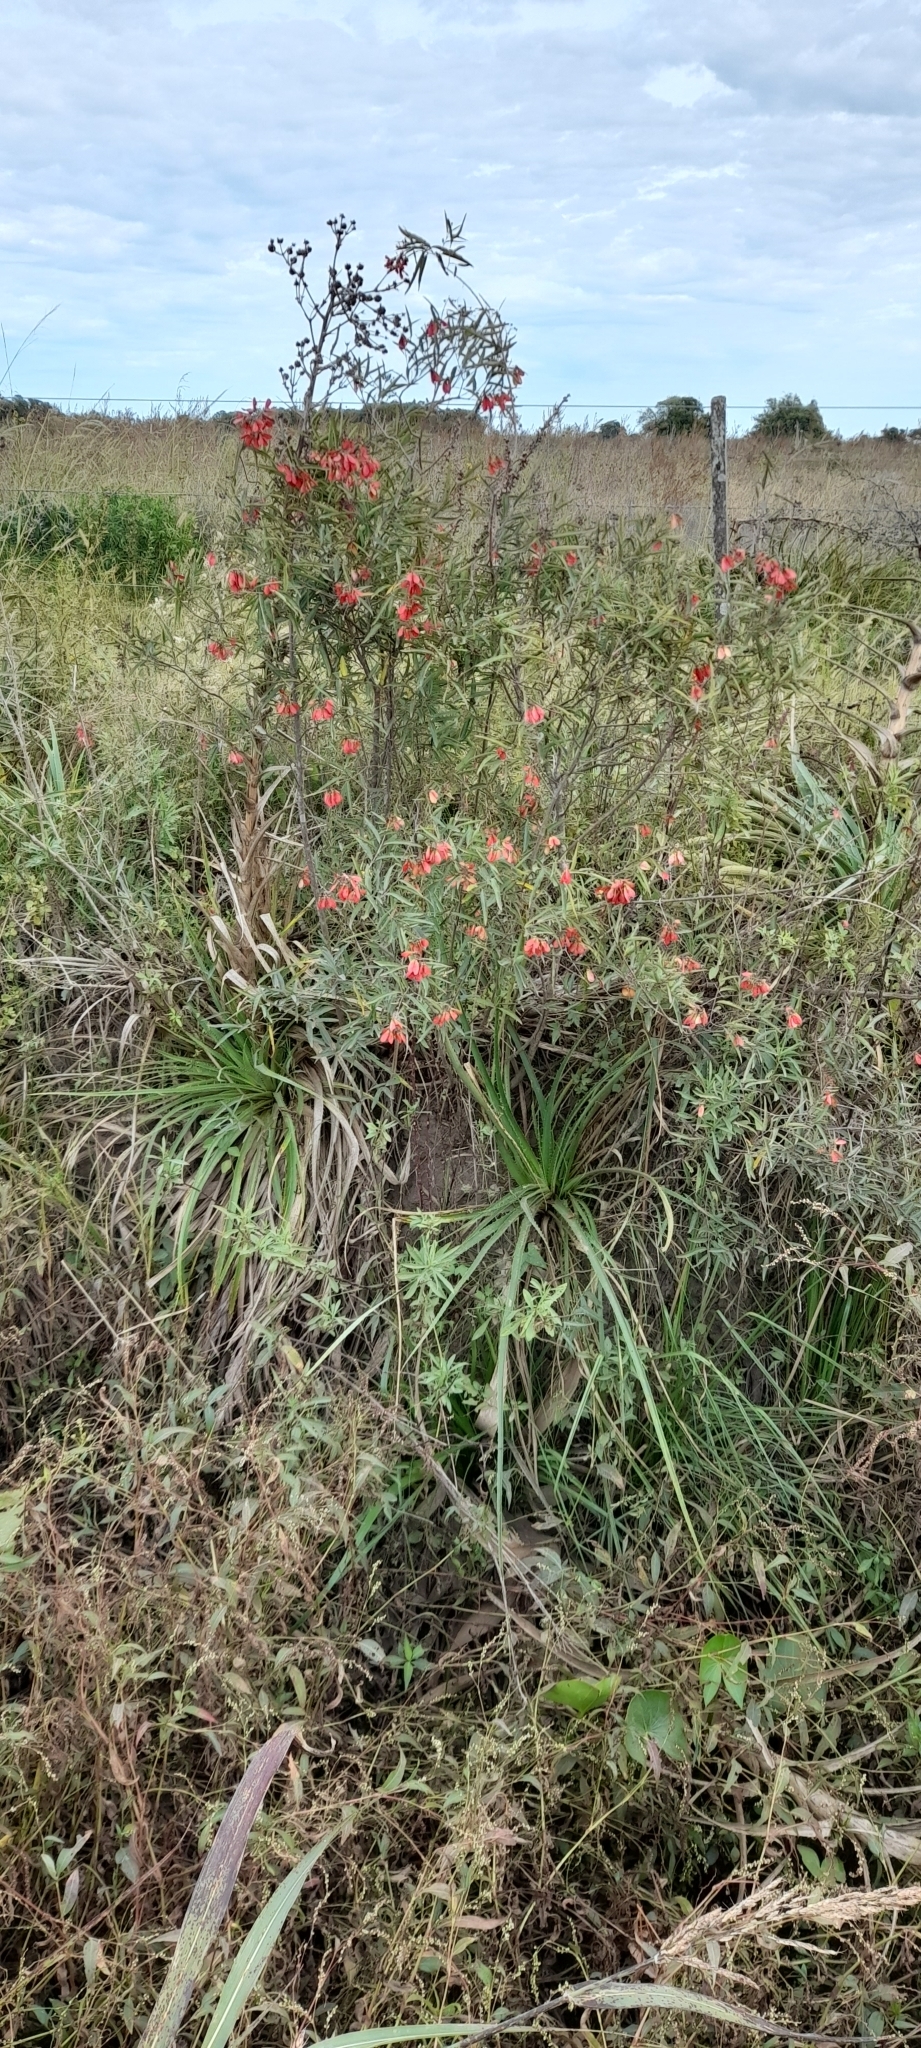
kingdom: Plantae
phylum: Tracheophyta
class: Magnoliopsida
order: Malpighiales
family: Malpighiaceae
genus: Heteropterys
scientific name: Heteropterys glabra
